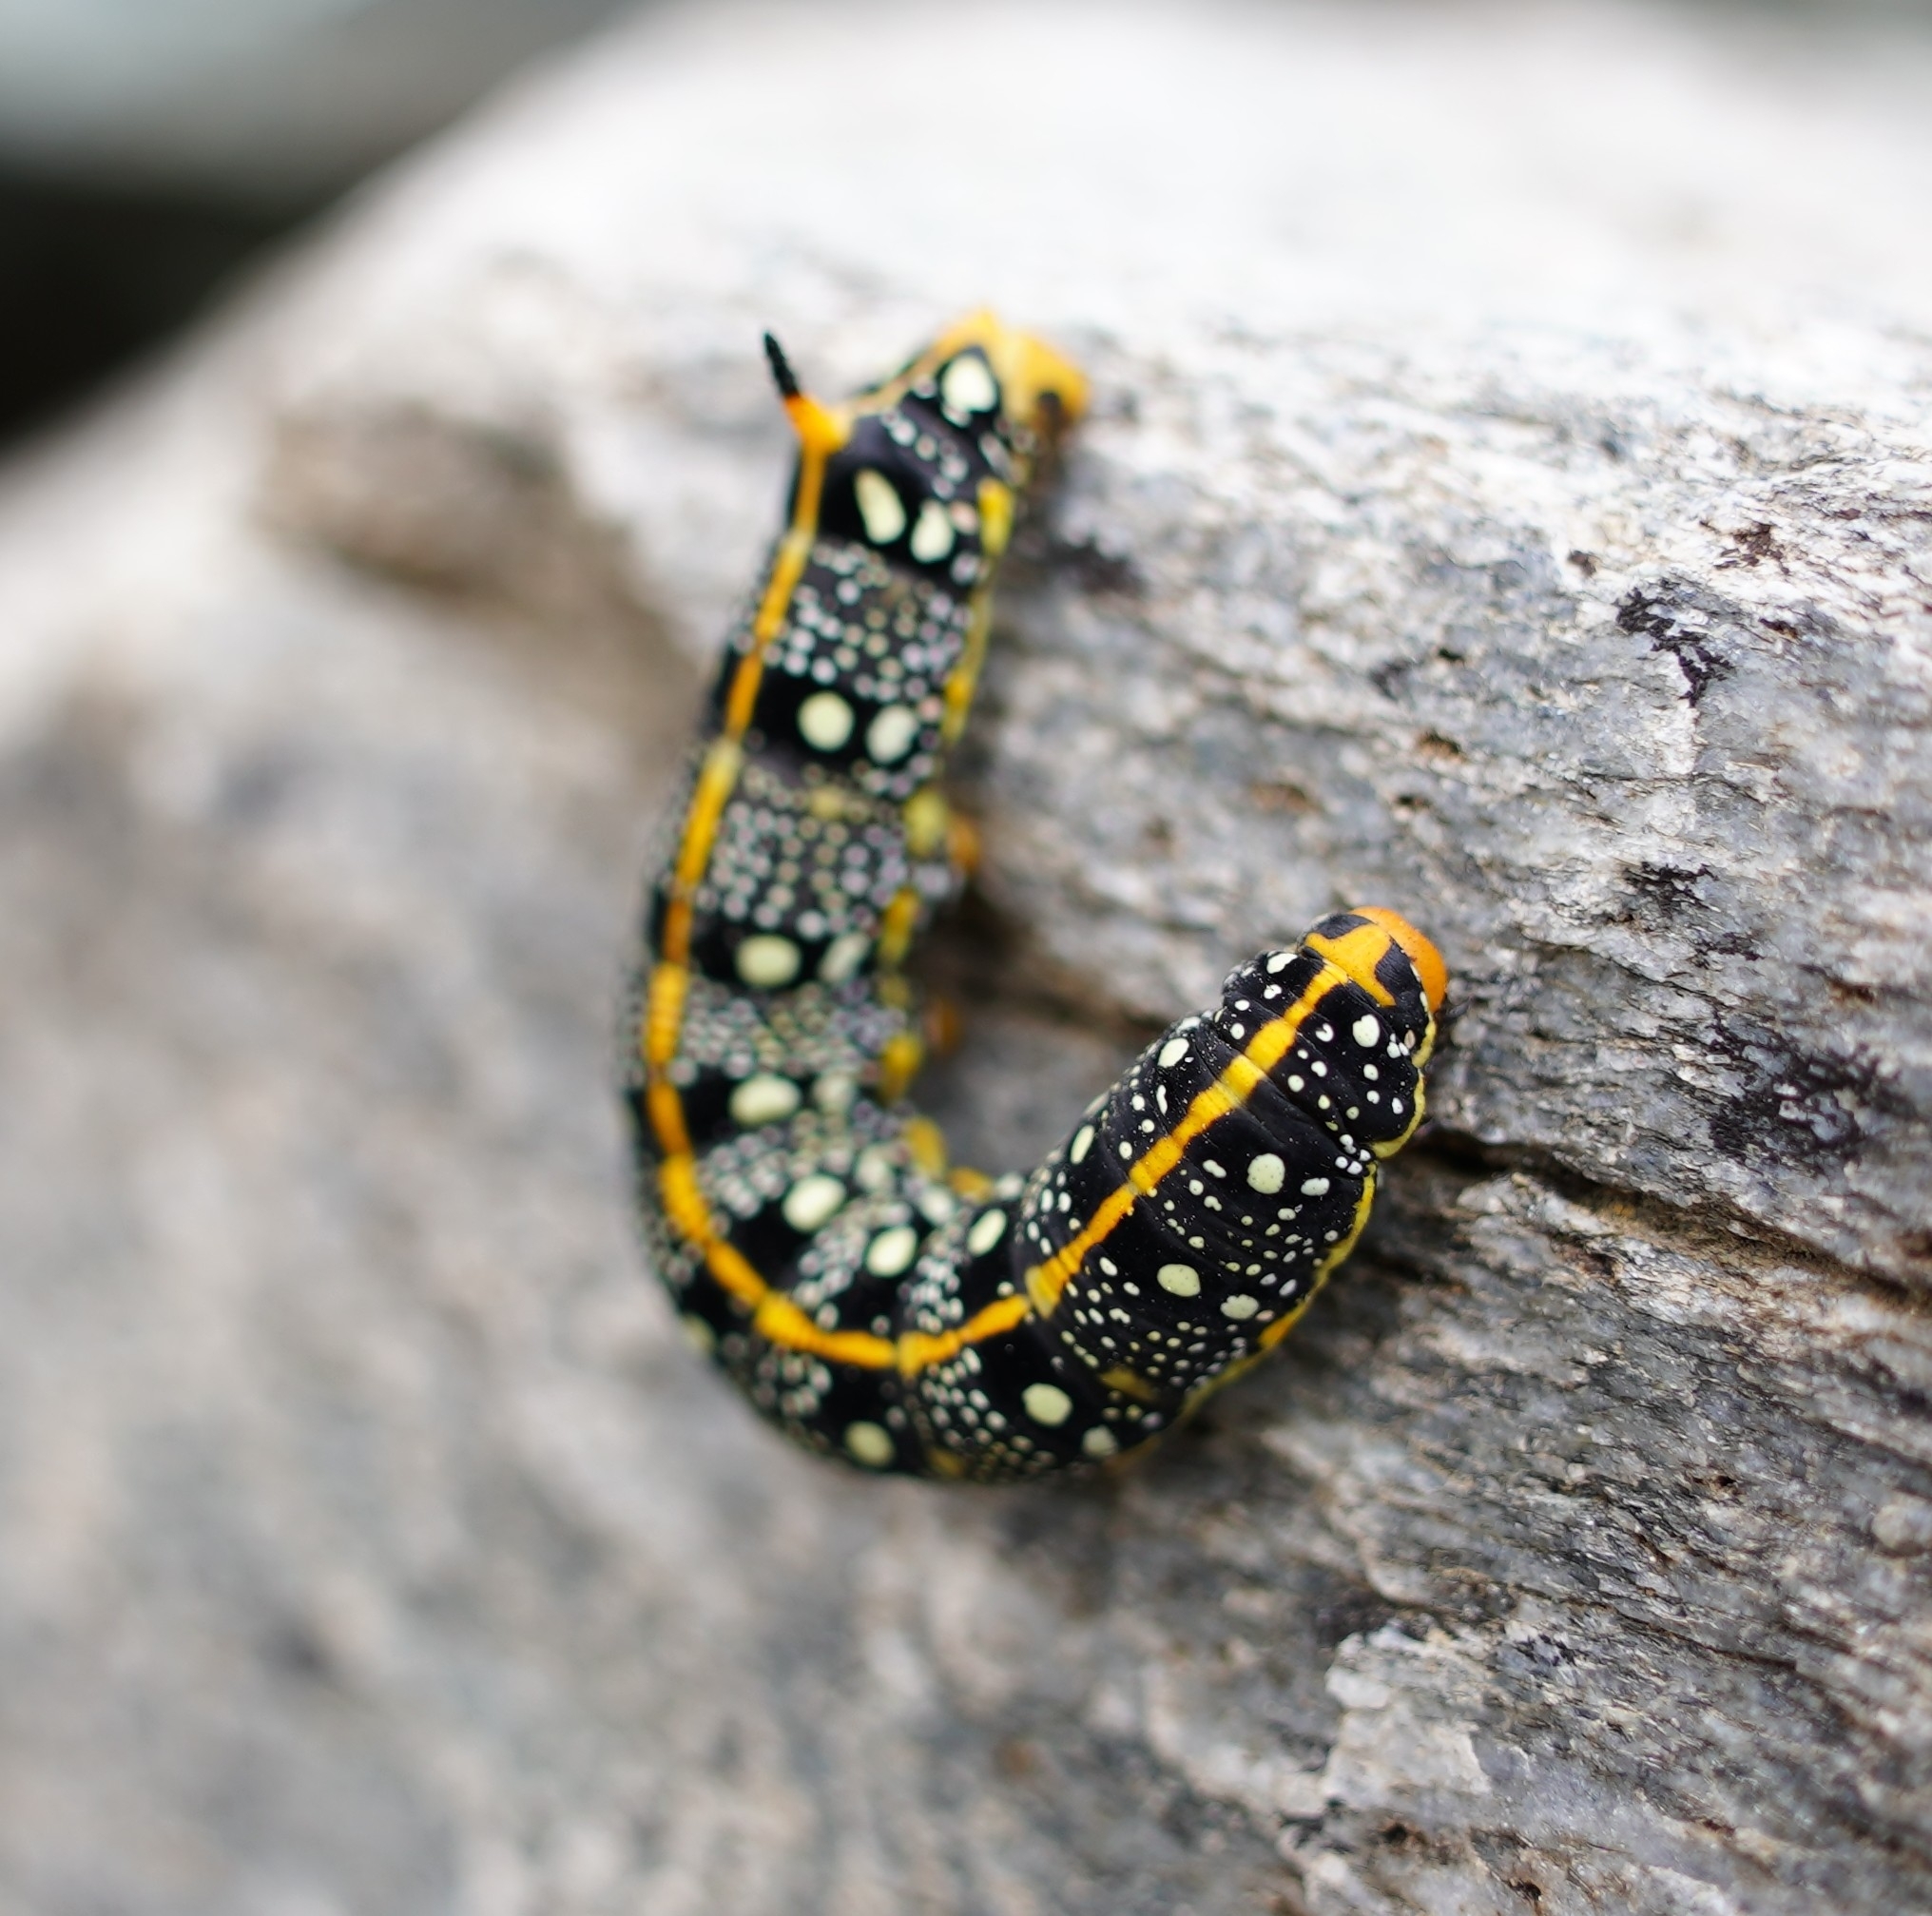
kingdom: Animalia
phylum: Arthropoda
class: Insecta
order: Lepidoptera
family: Sphingidae
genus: Hyles
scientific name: Hyles euphorbiae
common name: Spurge hawk-moth
